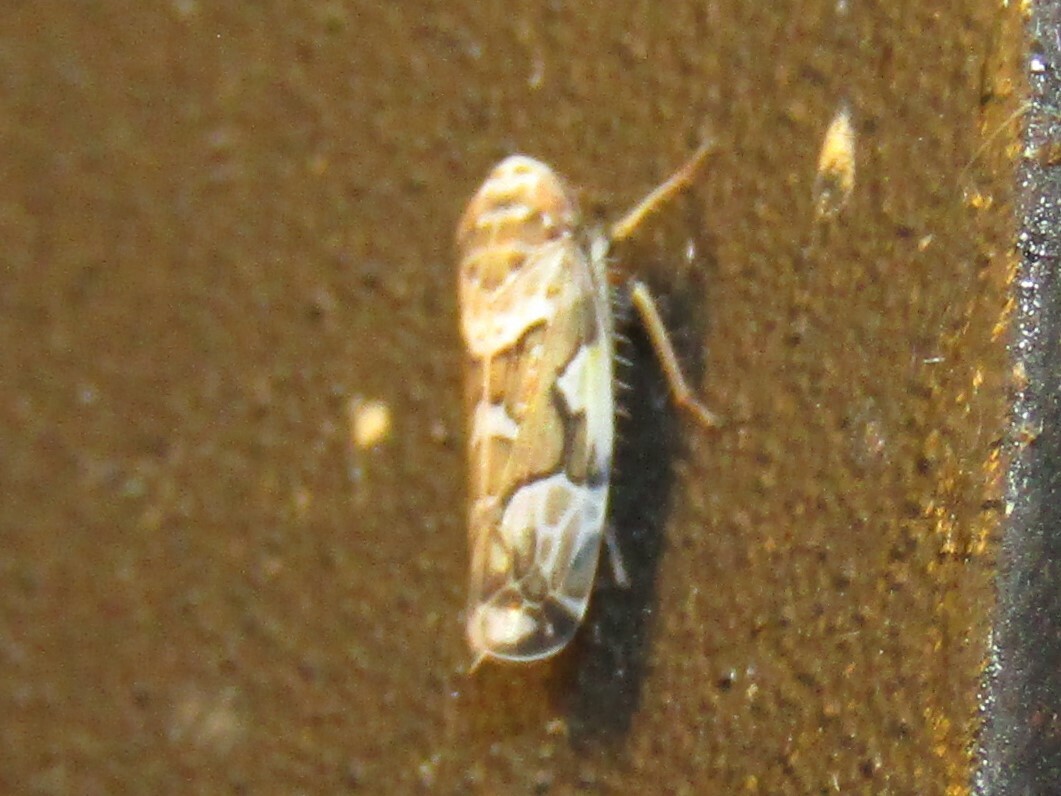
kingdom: Animalia
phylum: Arthropoda
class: Insecta
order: Hemiptera
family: Cicadellidae
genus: Sanctanus
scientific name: Sanctanus cruciatus
